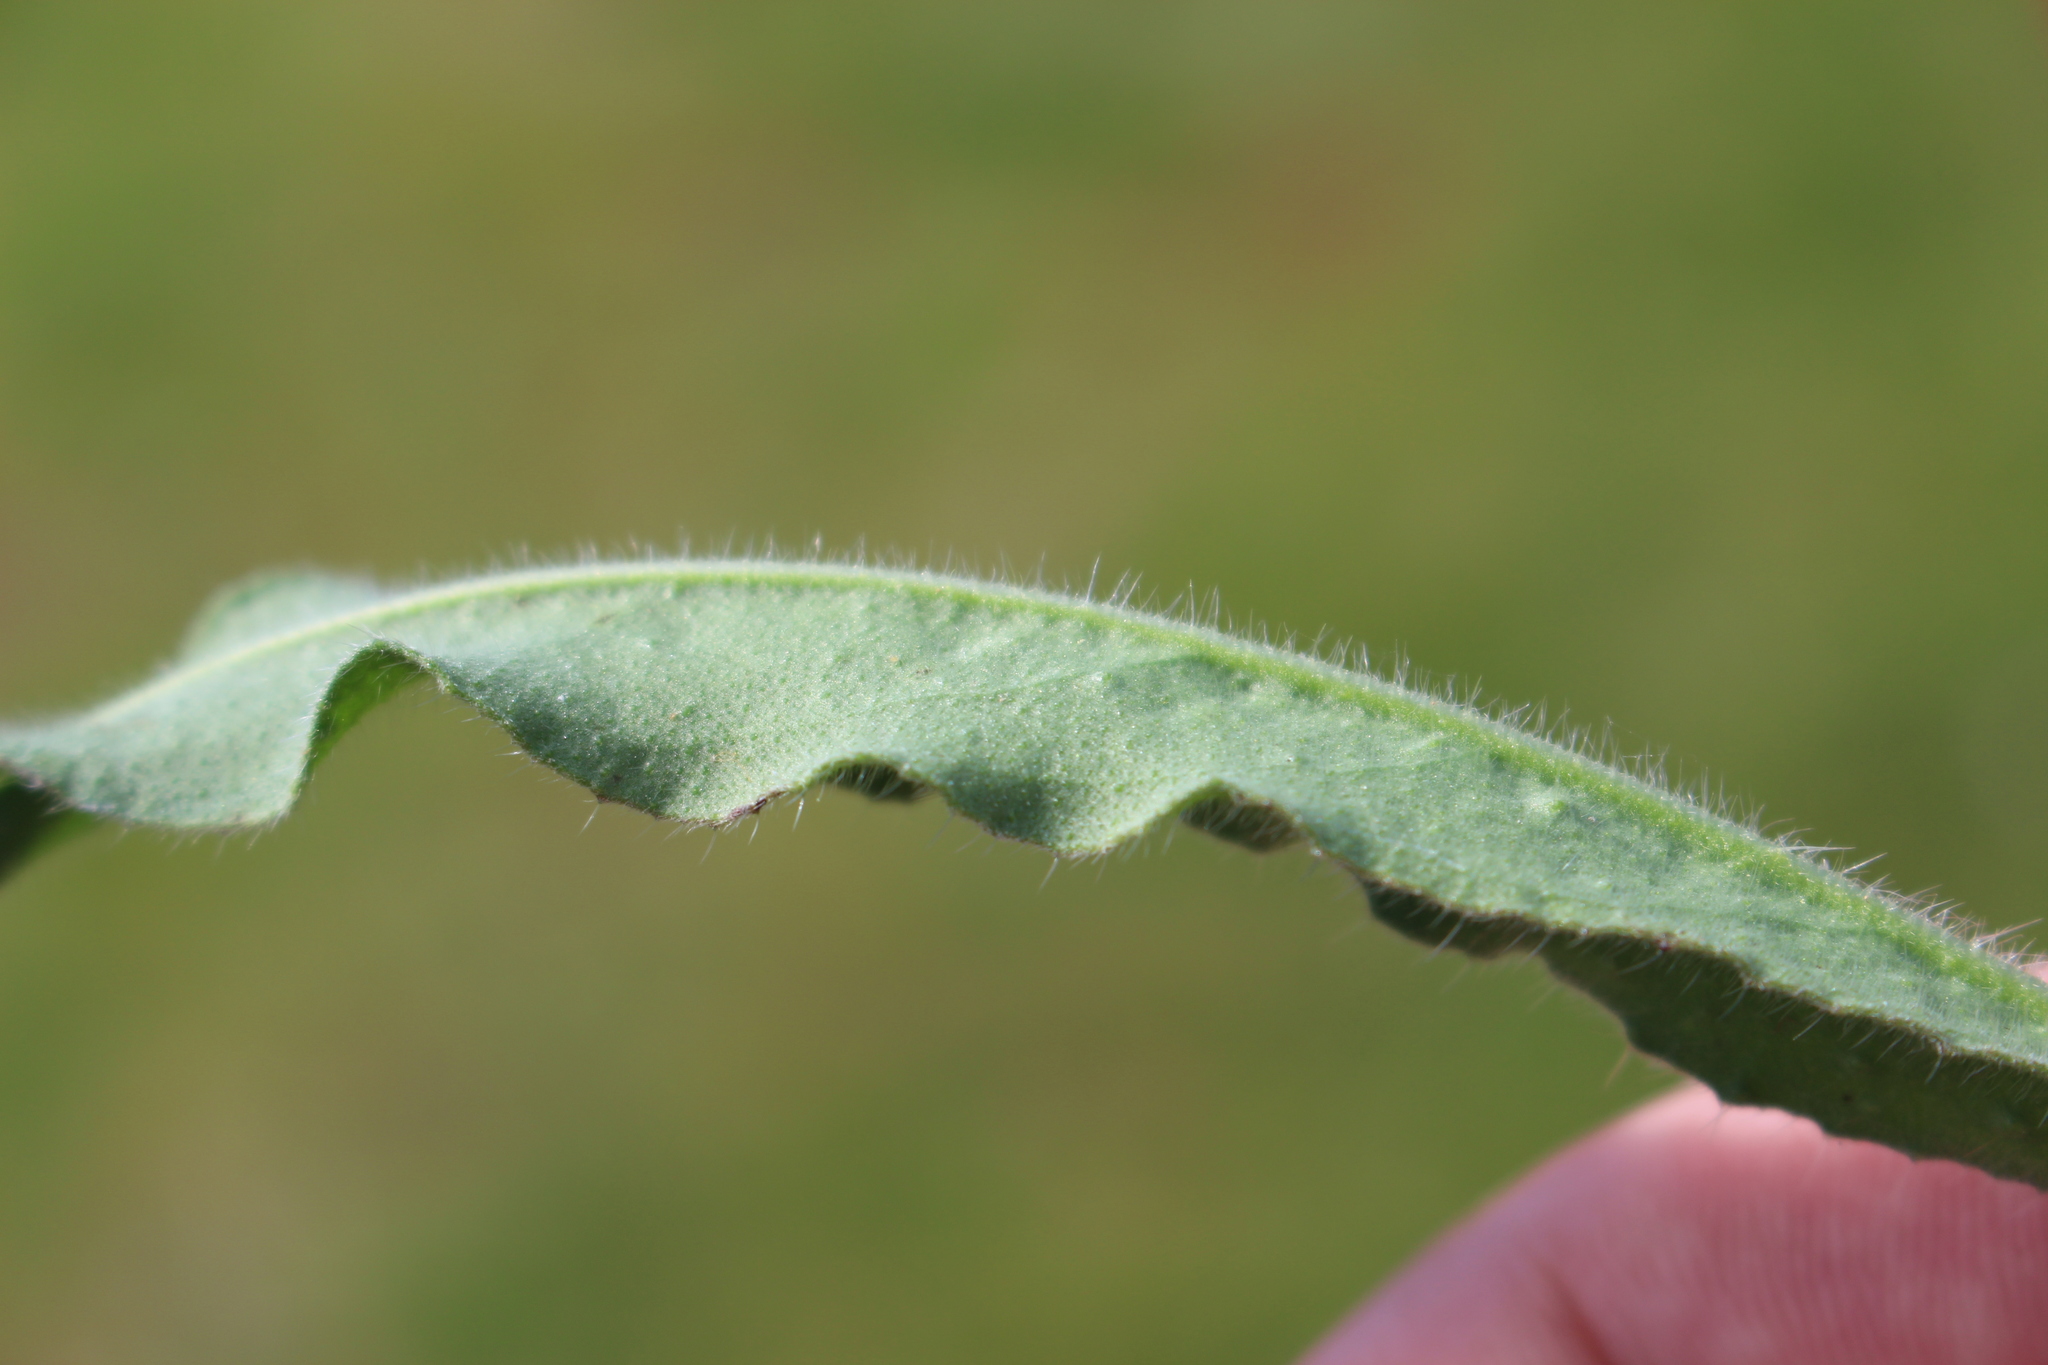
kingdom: Plantae
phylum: Tracheophyta
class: Magnoliopsida
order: Boraginales
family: Boraginaceae
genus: Echium
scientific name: Echium vulgare
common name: Common viper's bugloss
